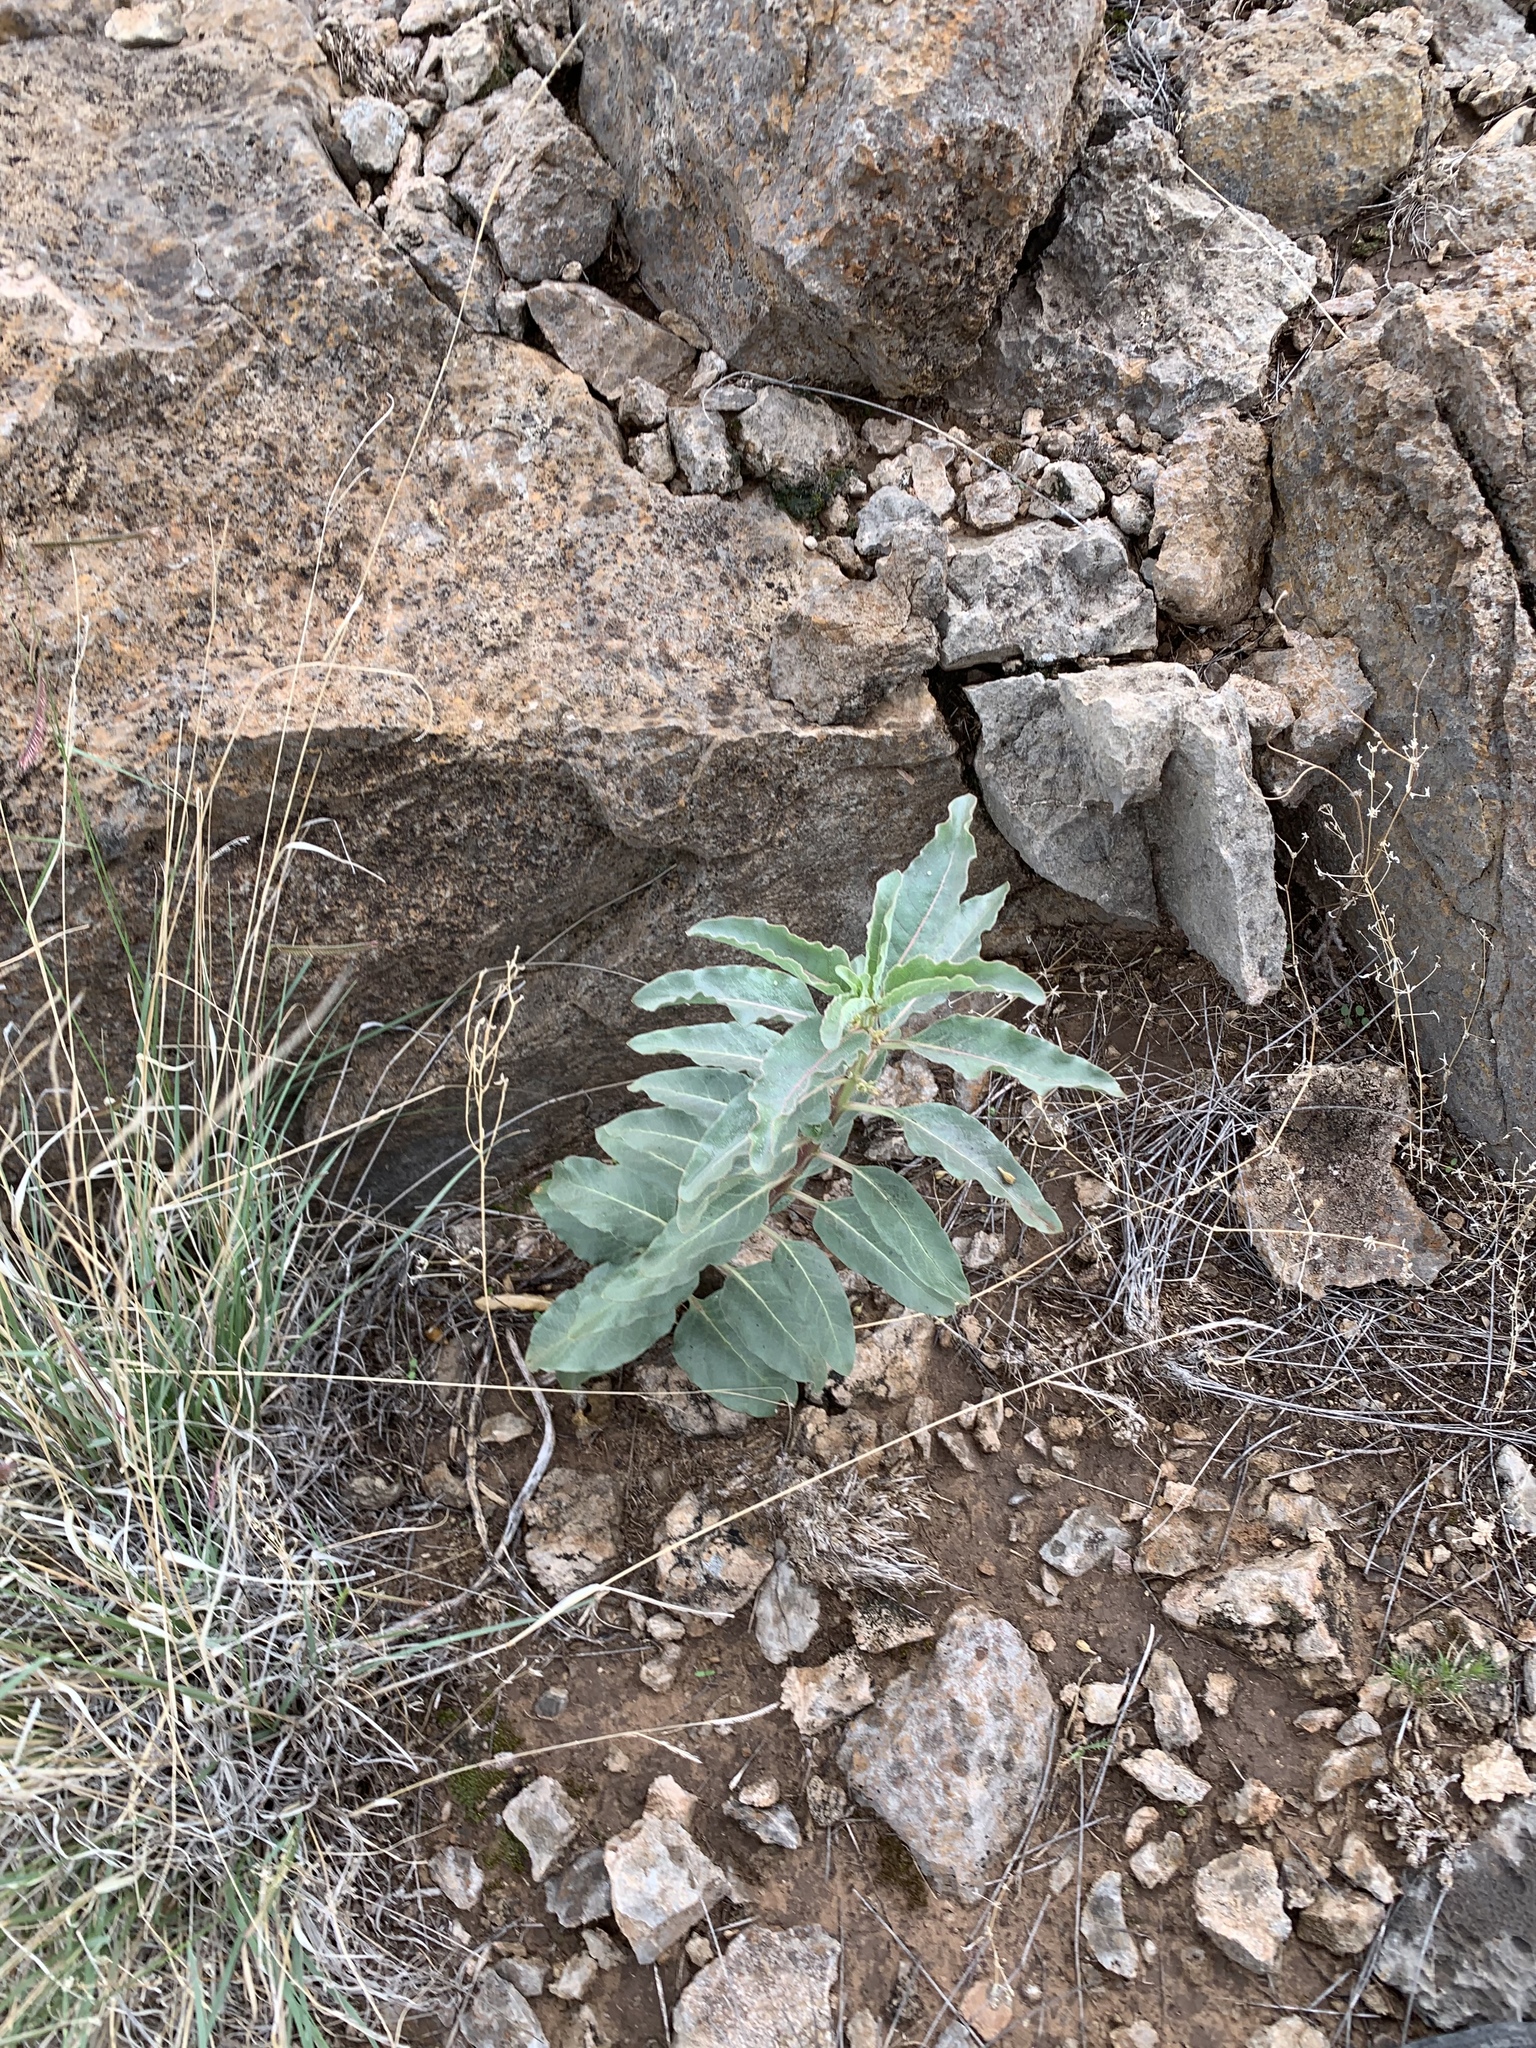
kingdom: Plantae
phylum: Tracheophyta
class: Magnoliopsida
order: Gentianales
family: Apocynaceae
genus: Asclepias
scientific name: Asclepias oenotheroides
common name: Zizotes milkweed
